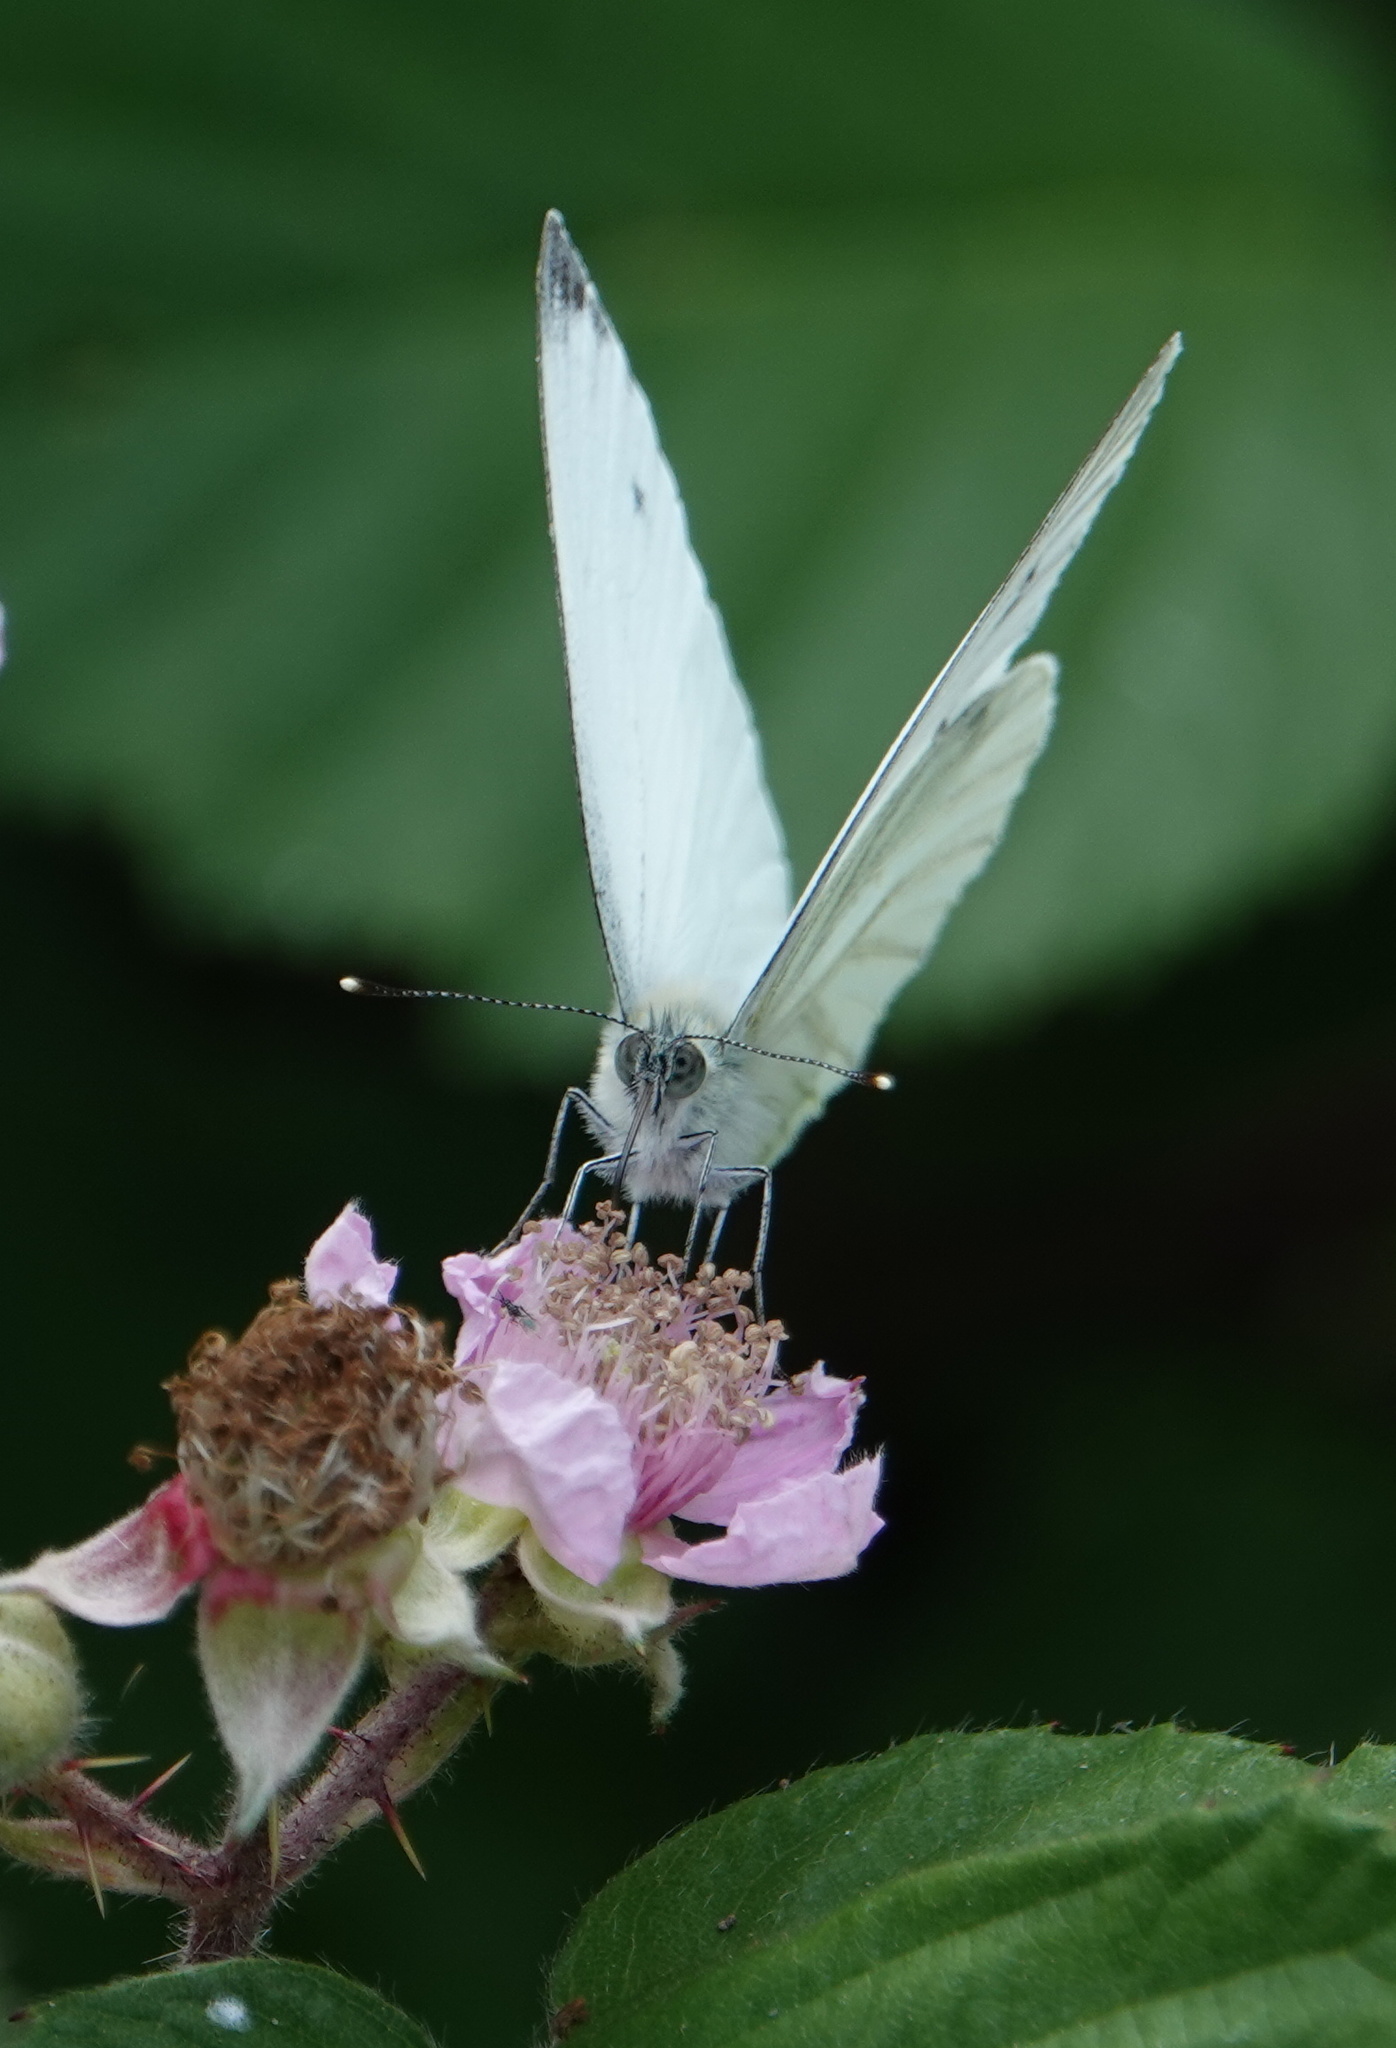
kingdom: Animalia
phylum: Arthropoda
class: Insecta
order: Lepidoptera
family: Pieridae
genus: Pieris
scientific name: Pieris napi
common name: Green-veined white
